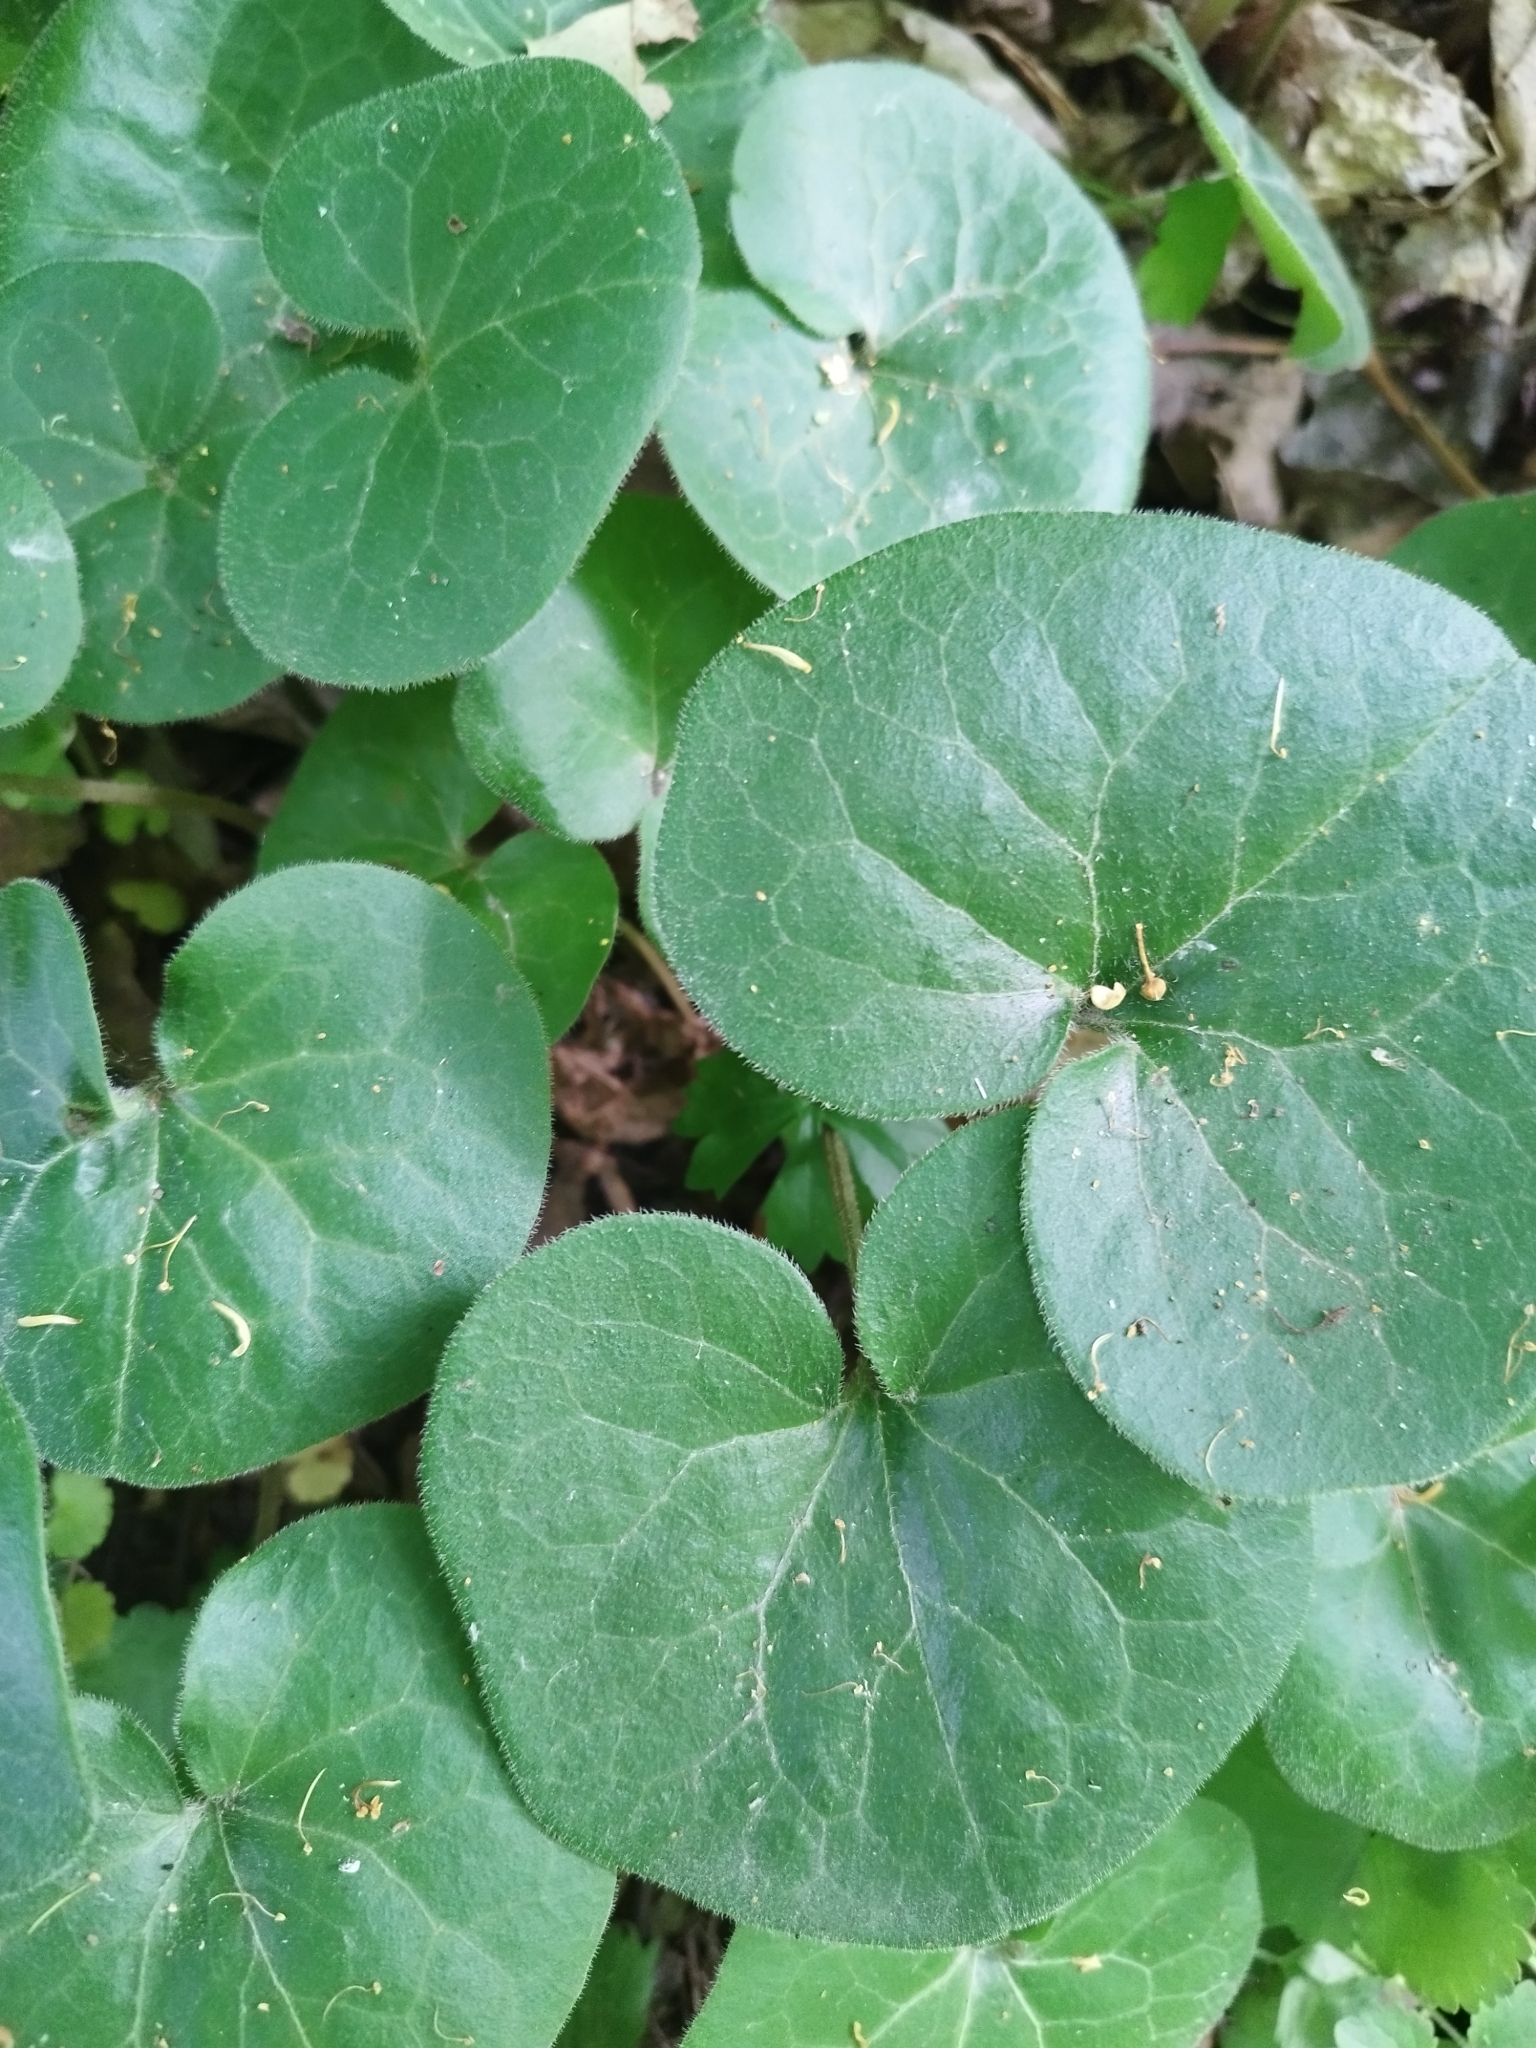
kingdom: Plantae
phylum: Tracheophyta
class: Magnoliopsida
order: Piperales
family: Aristolochiaceae
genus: Asarum
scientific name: Asarum europaeum
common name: Asarabacca
